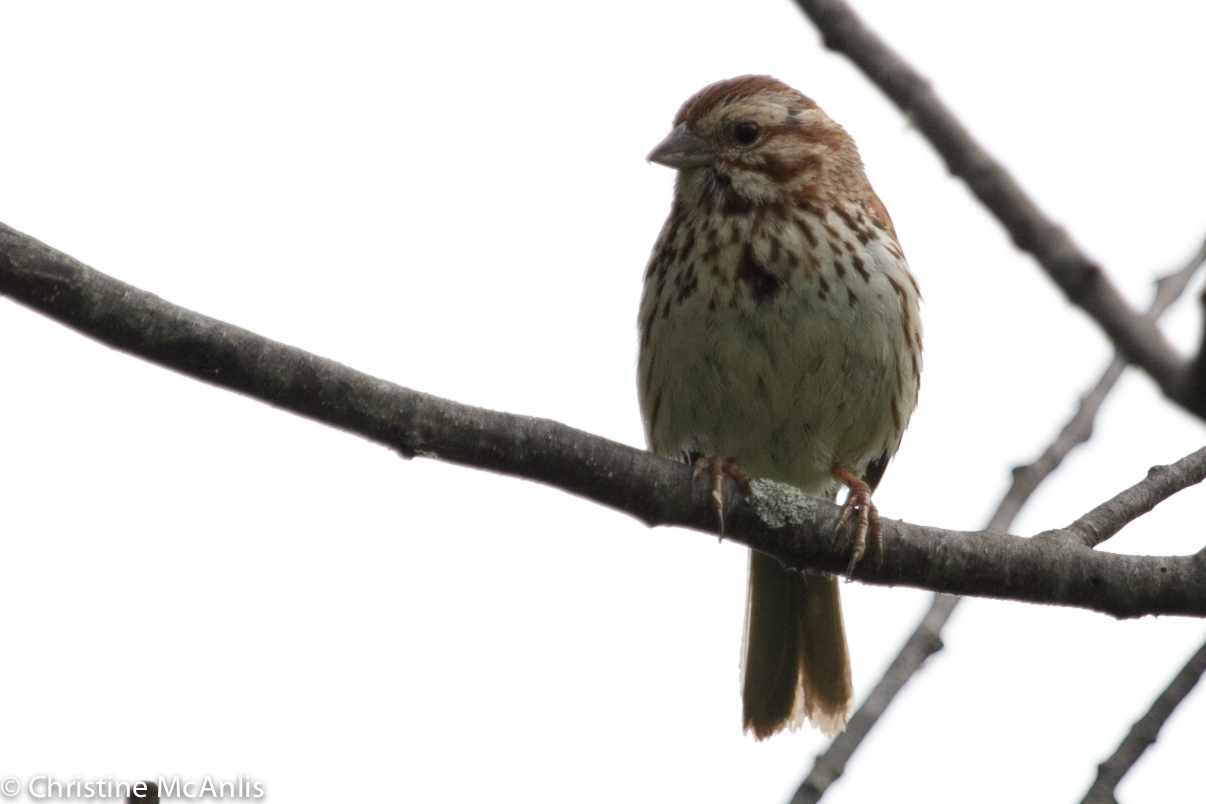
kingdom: Animalia
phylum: Chordata
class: Aves
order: Passeriformes
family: Passerellidae
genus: Melospiza
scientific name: Melospiza melodia
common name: Song sparrow
